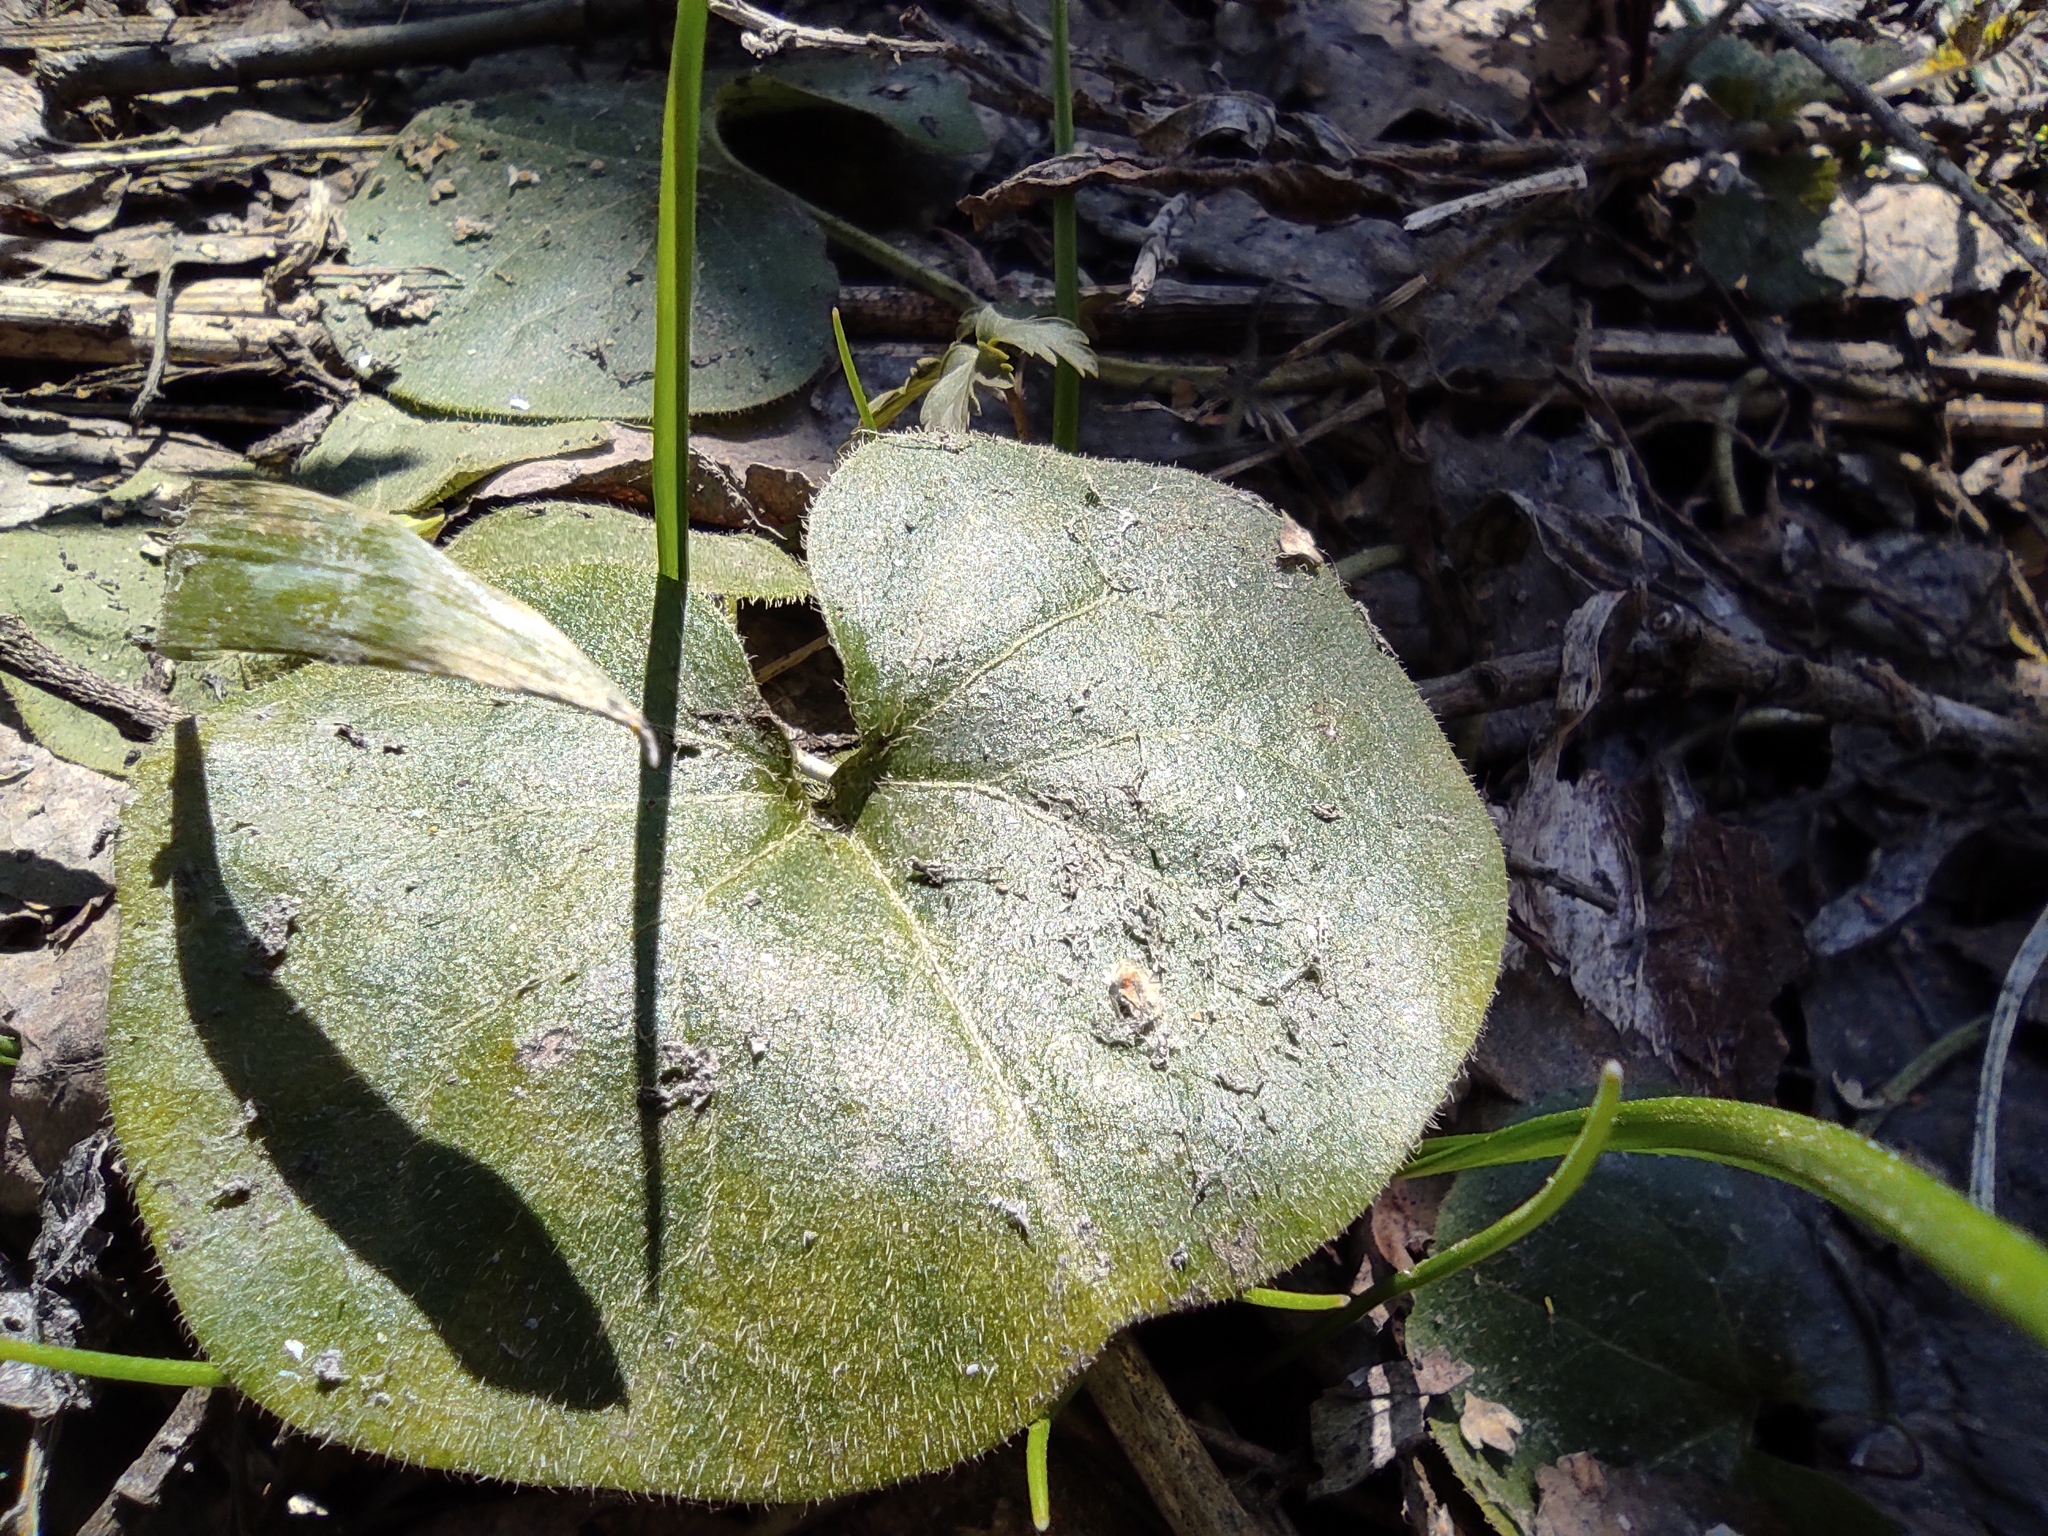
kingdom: Plantae
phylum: Tracheophyta
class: Magnoliopsida
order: Piperales
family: Aristolochiaceae
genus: Asarum
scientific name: Asarum europaeum
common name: Asarabacca
